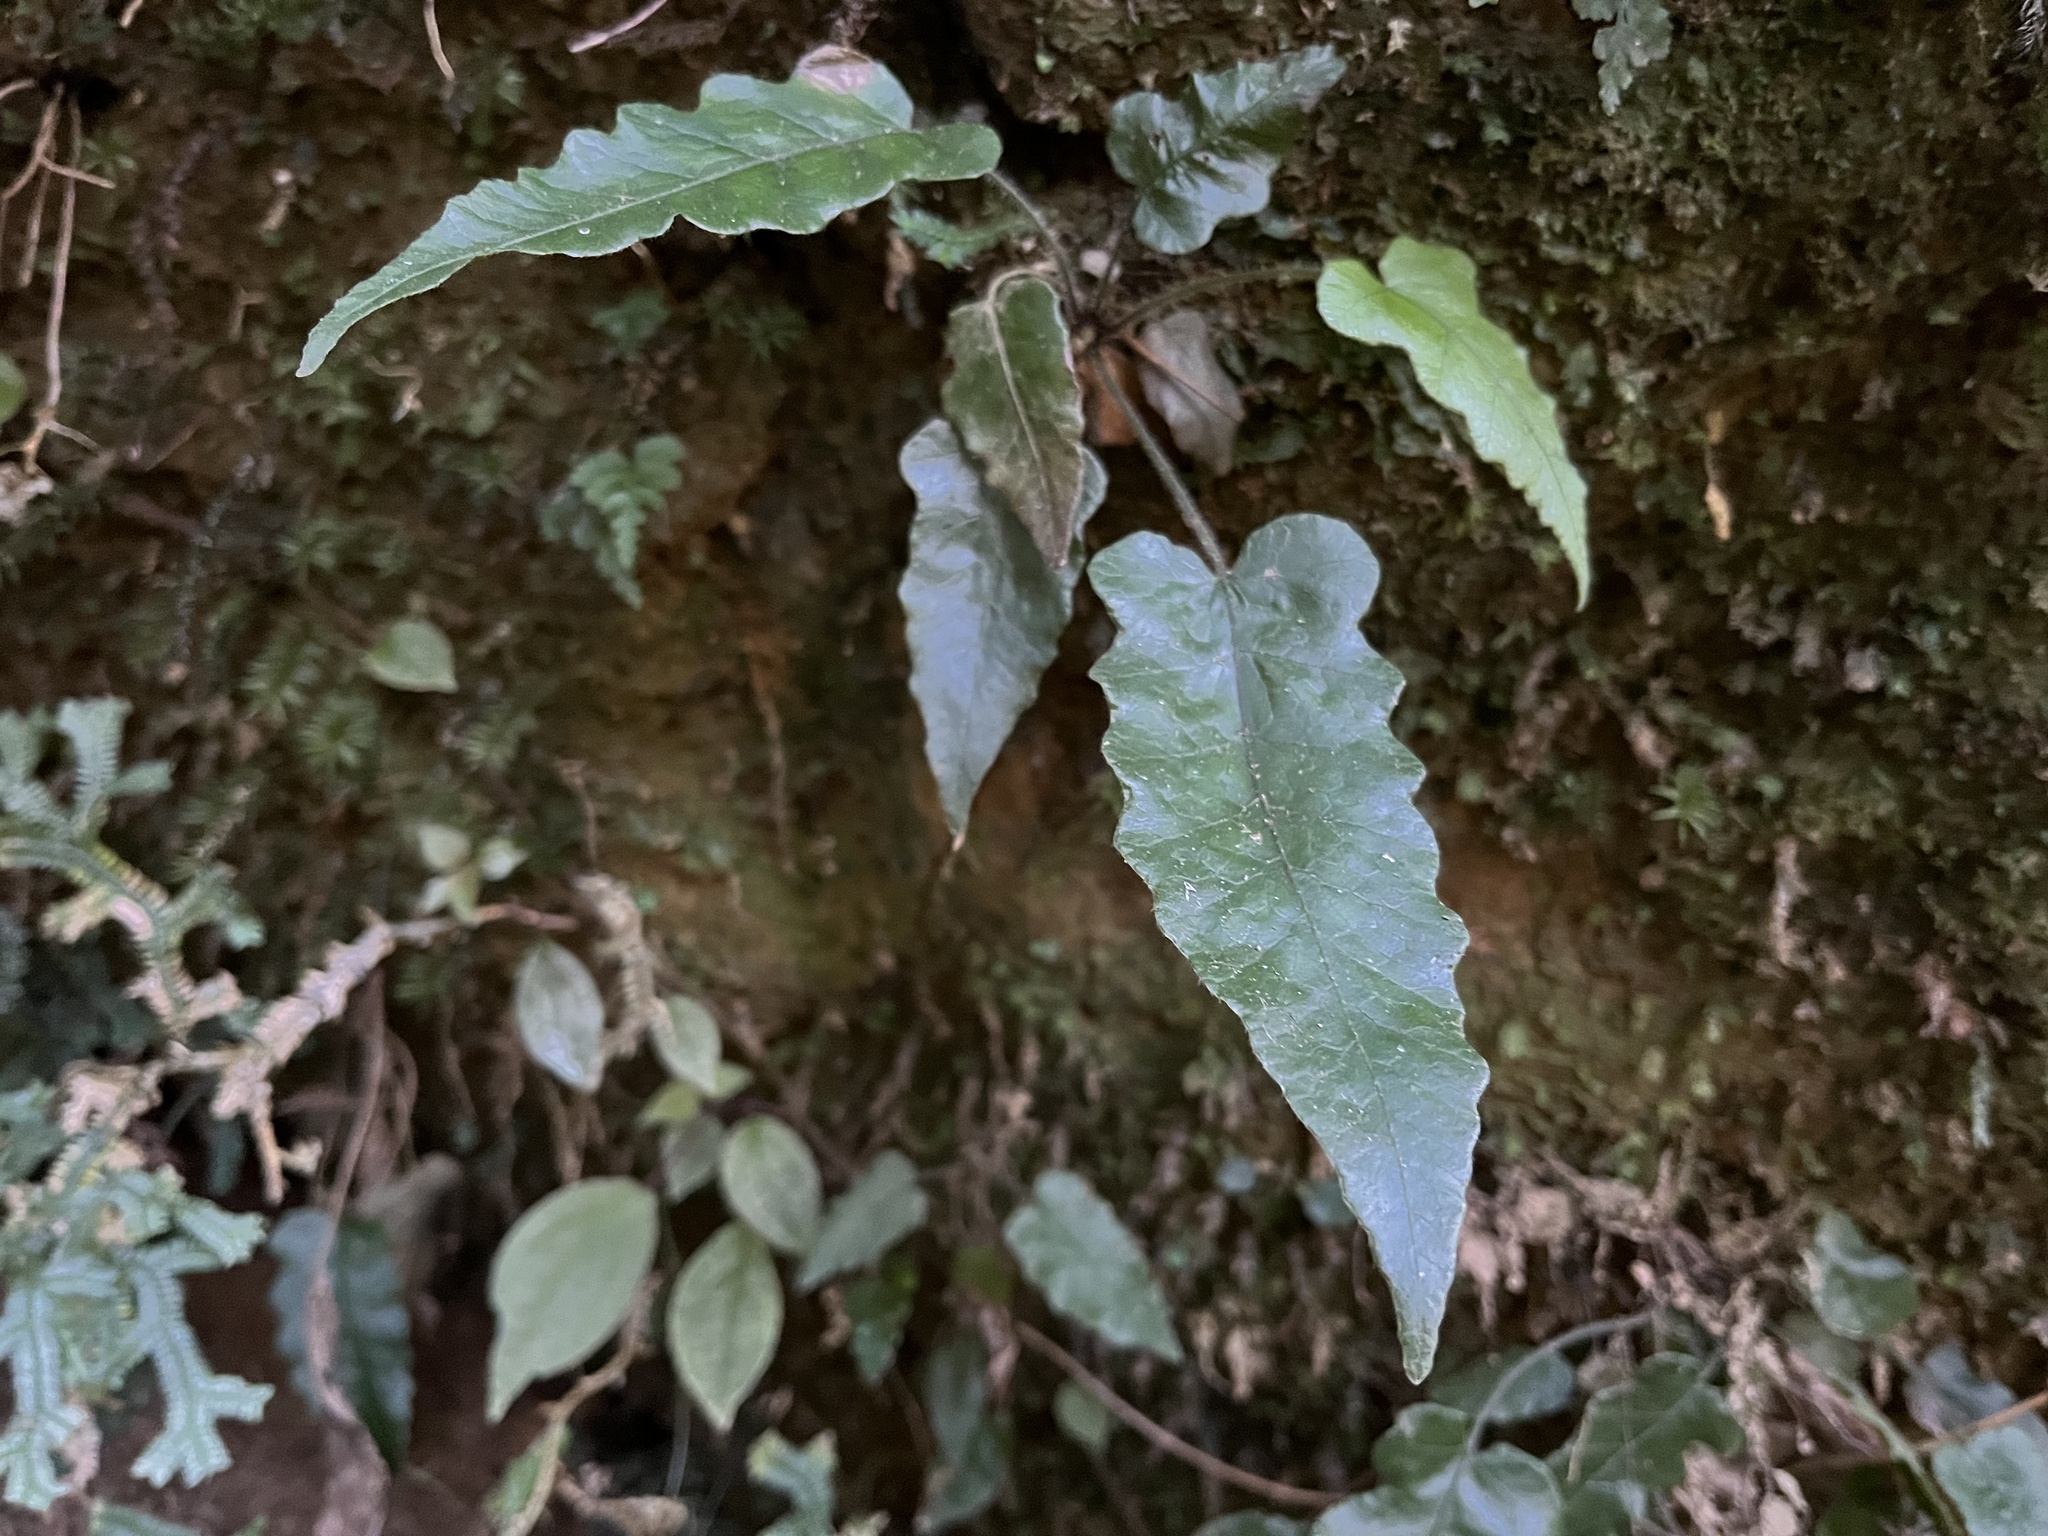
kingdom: Plantae
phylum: Tracheophyta
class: Polypodiopsida
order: Polypodiales
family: Thelypteridaceae
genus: Stegnogramma
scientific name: Stegnogramma wilfordii
